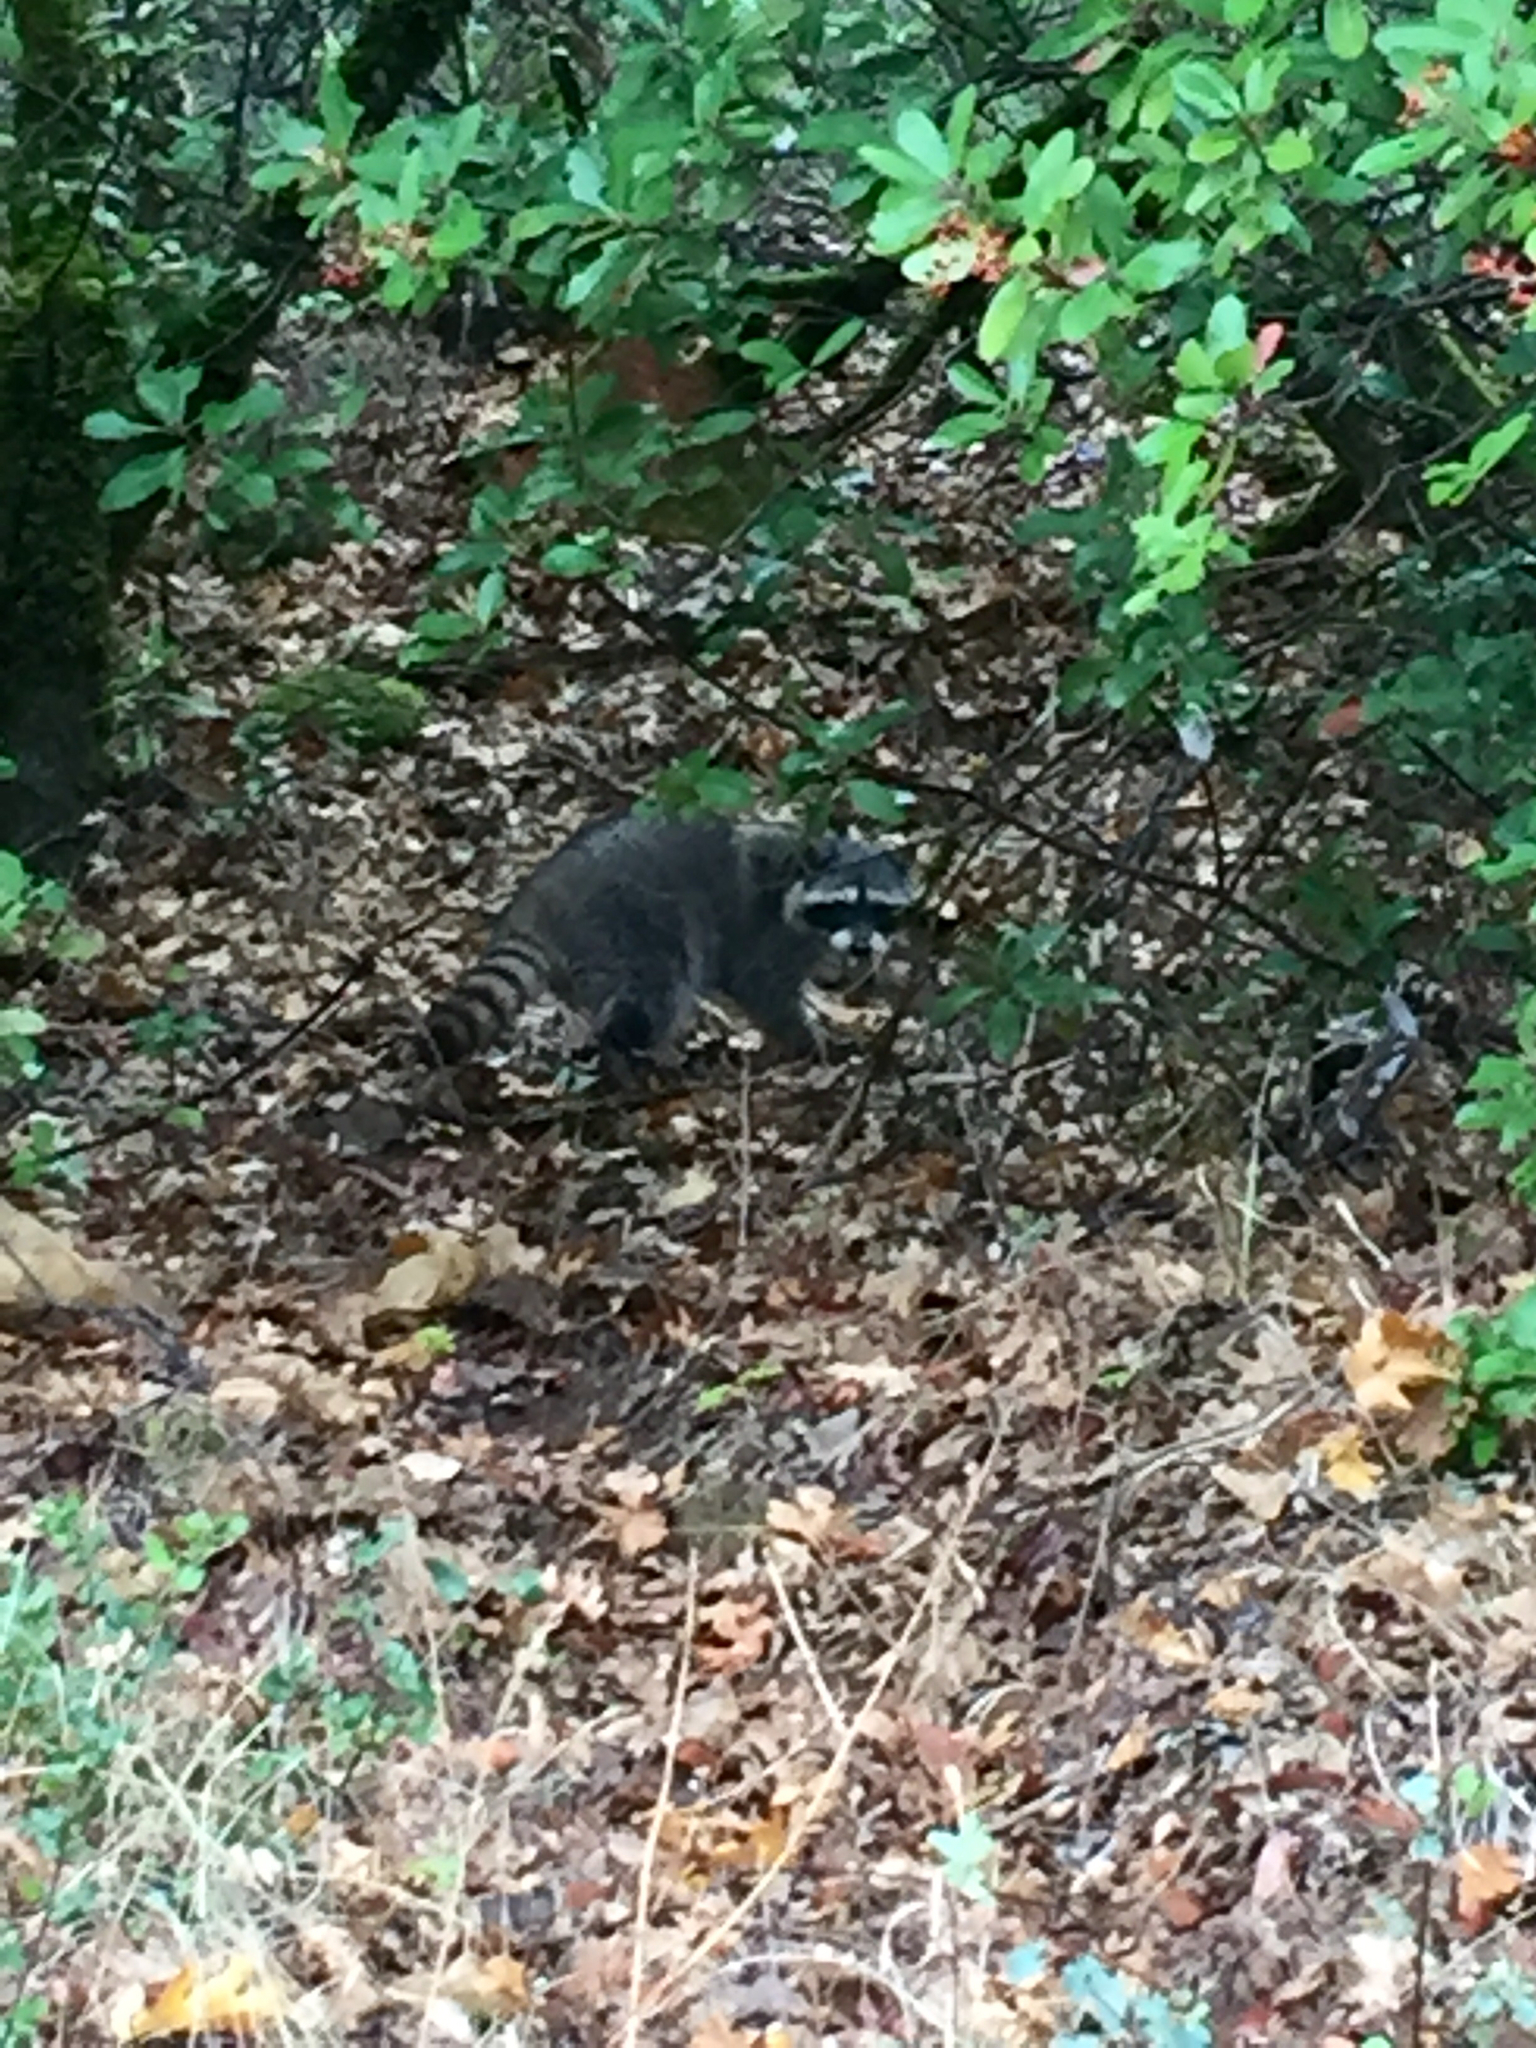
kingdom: Animalia
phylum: Chordata
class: Mammalia
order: Carnivora
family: Procyonidae
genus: Procyon
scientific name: Procyon lotor
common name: Raccoon
